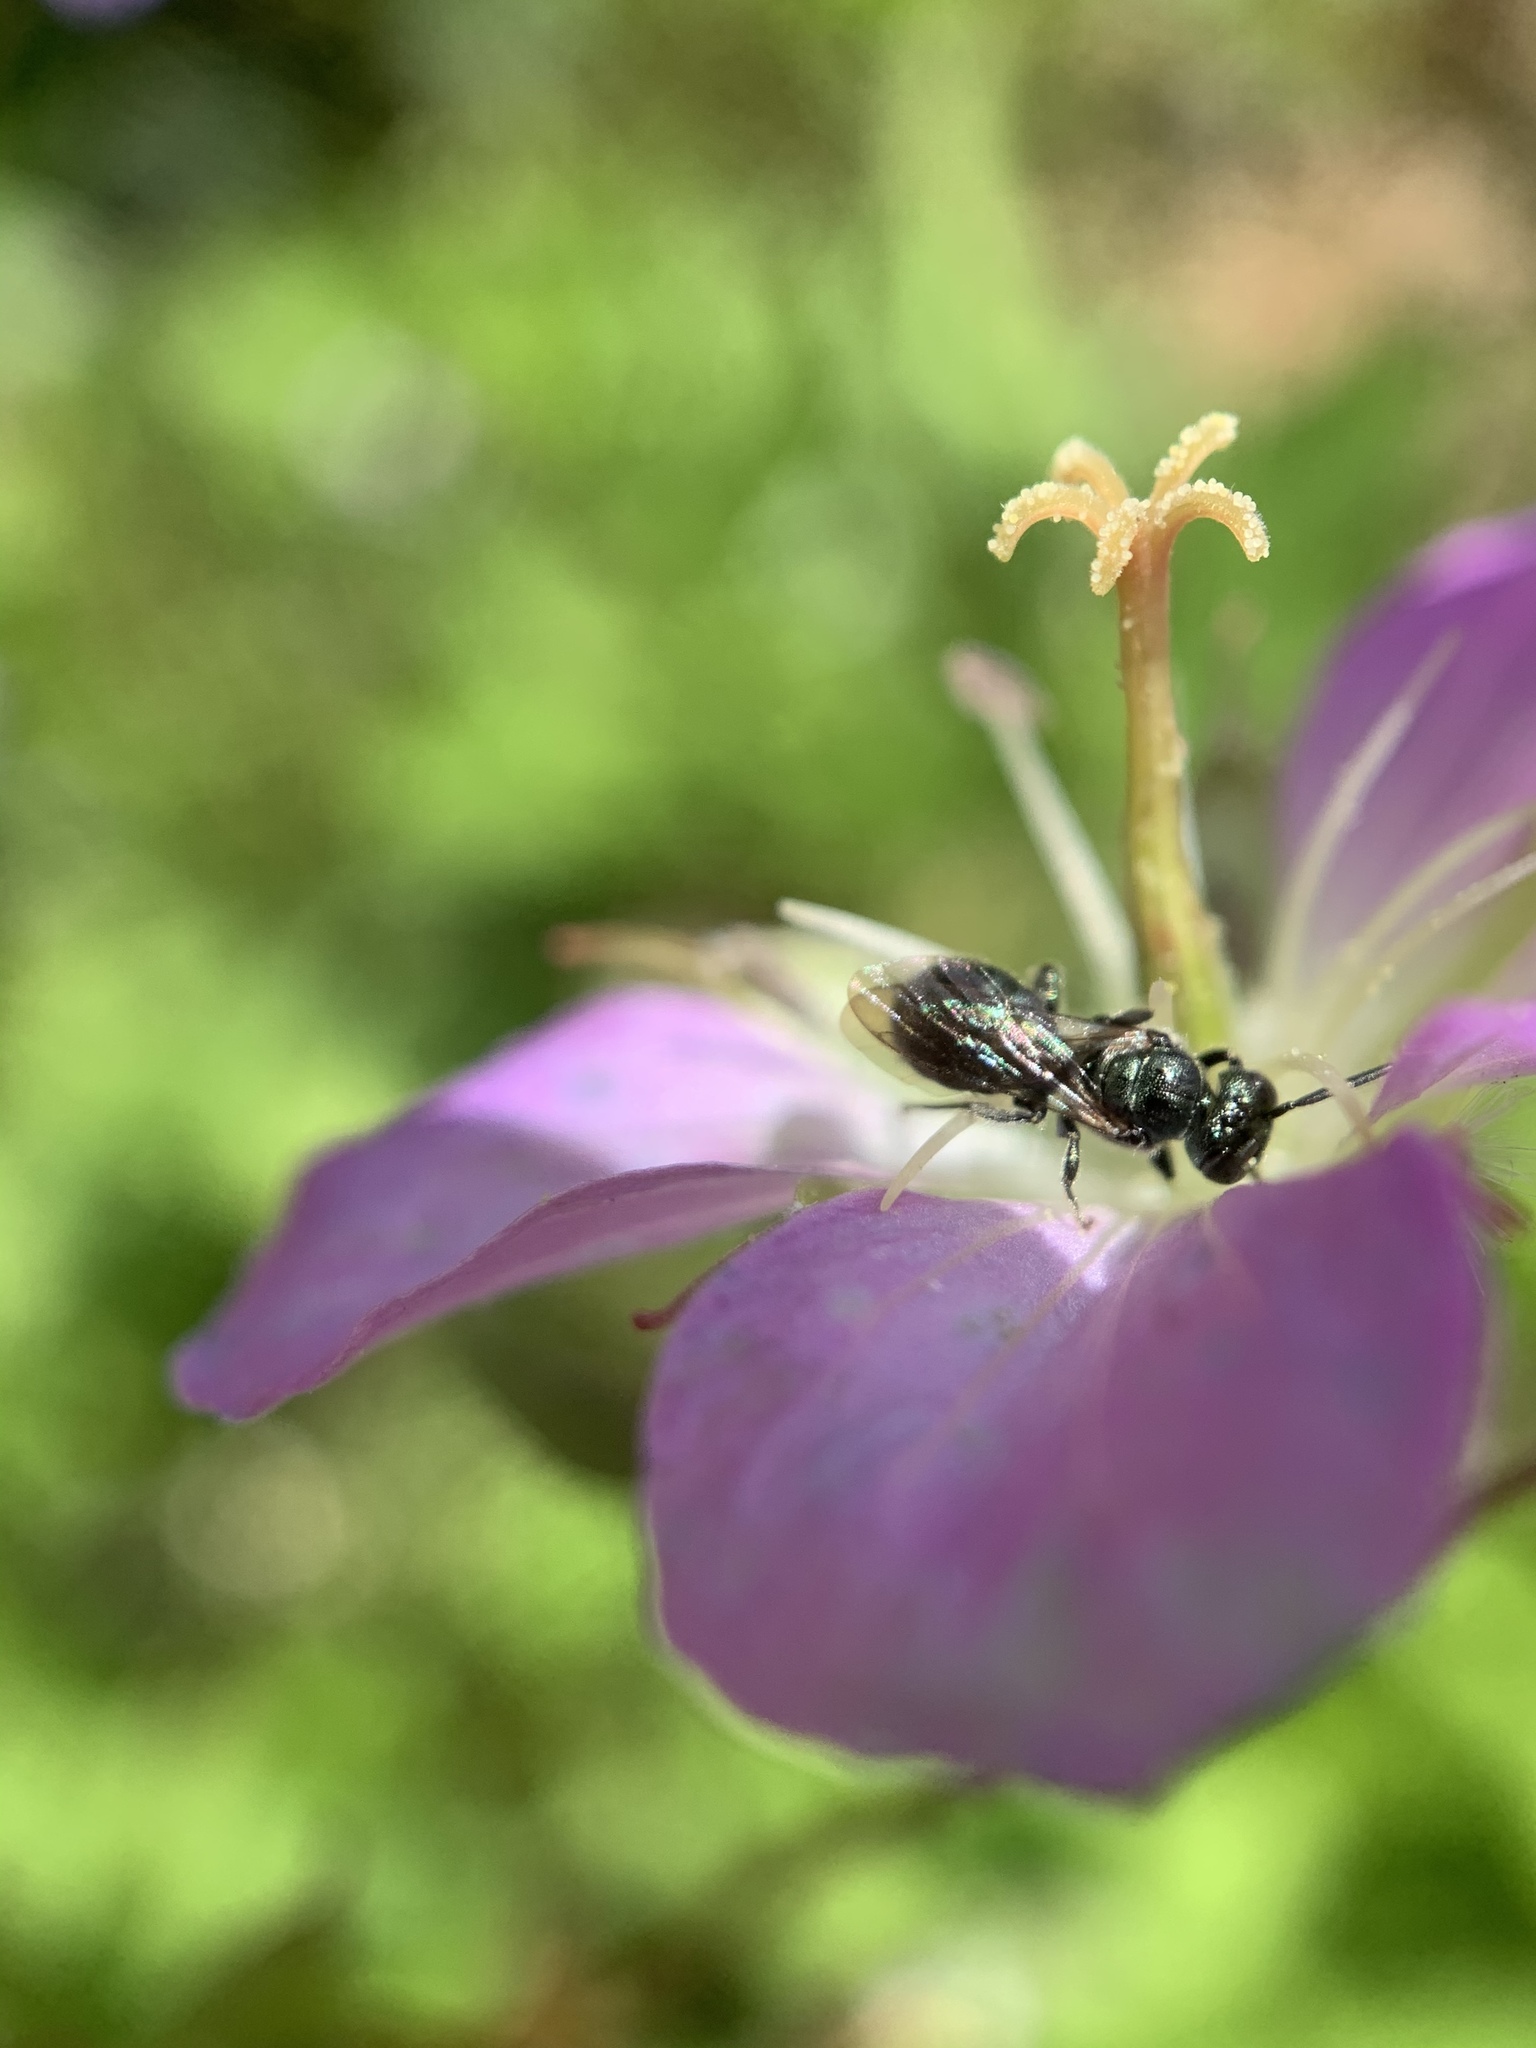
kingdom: Animalia
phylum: Arthropoda
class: Insecta
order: Hymenoptera
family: Apidae
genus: Zadontomerus
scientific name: Zadontomerus
